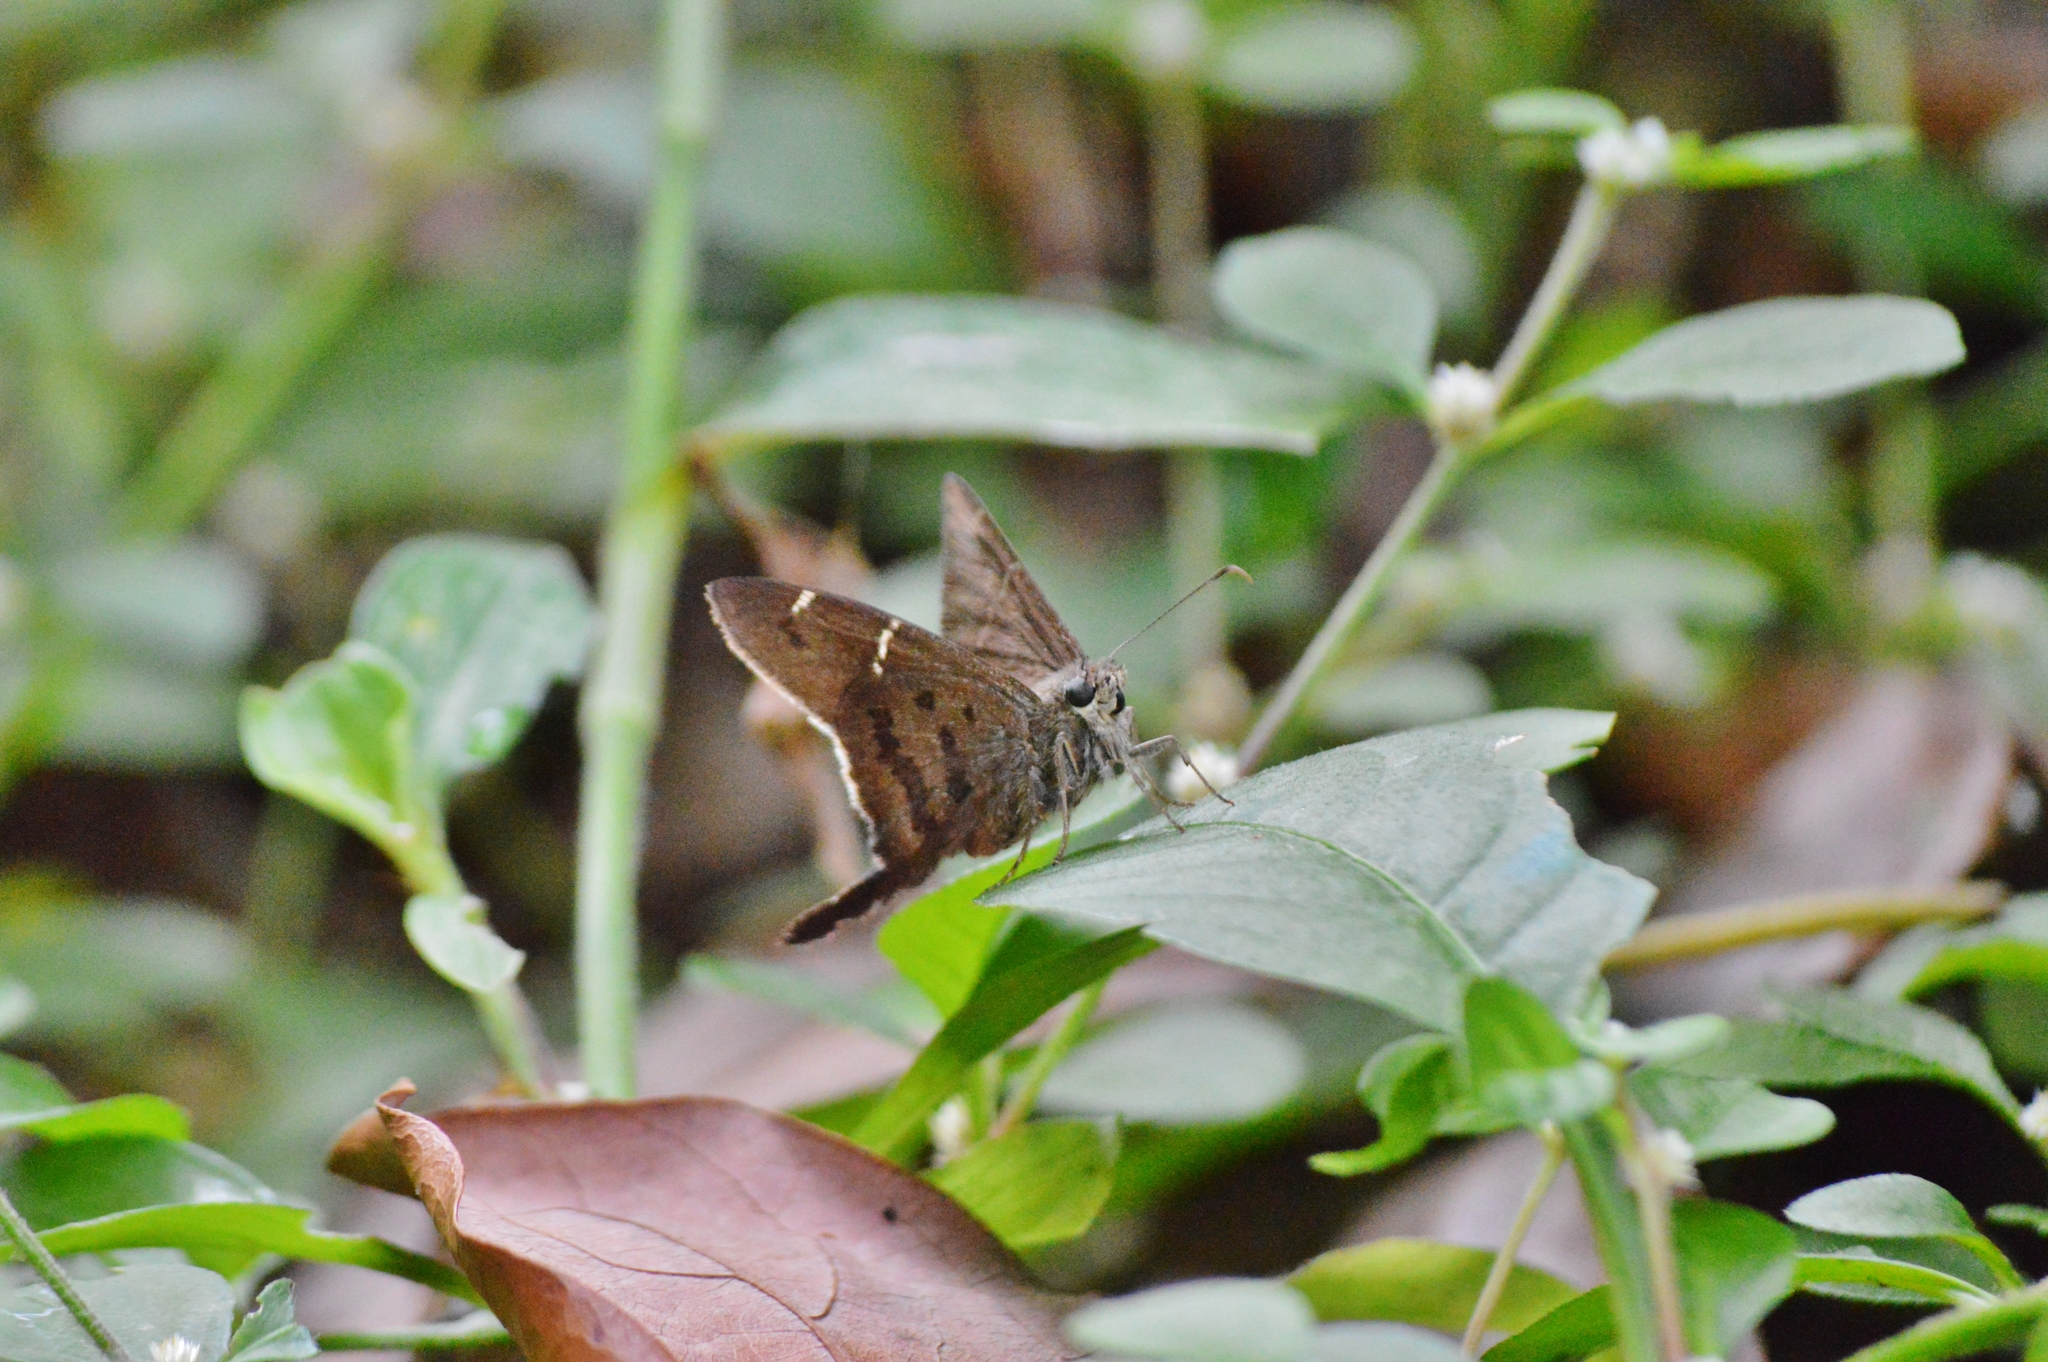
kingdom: Animalia
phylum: Arthropoda
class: Insecta
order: Lepidoptera
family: Hesperiidae
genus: Urbanus
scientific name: Urbanus procne
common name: Brown longtail
